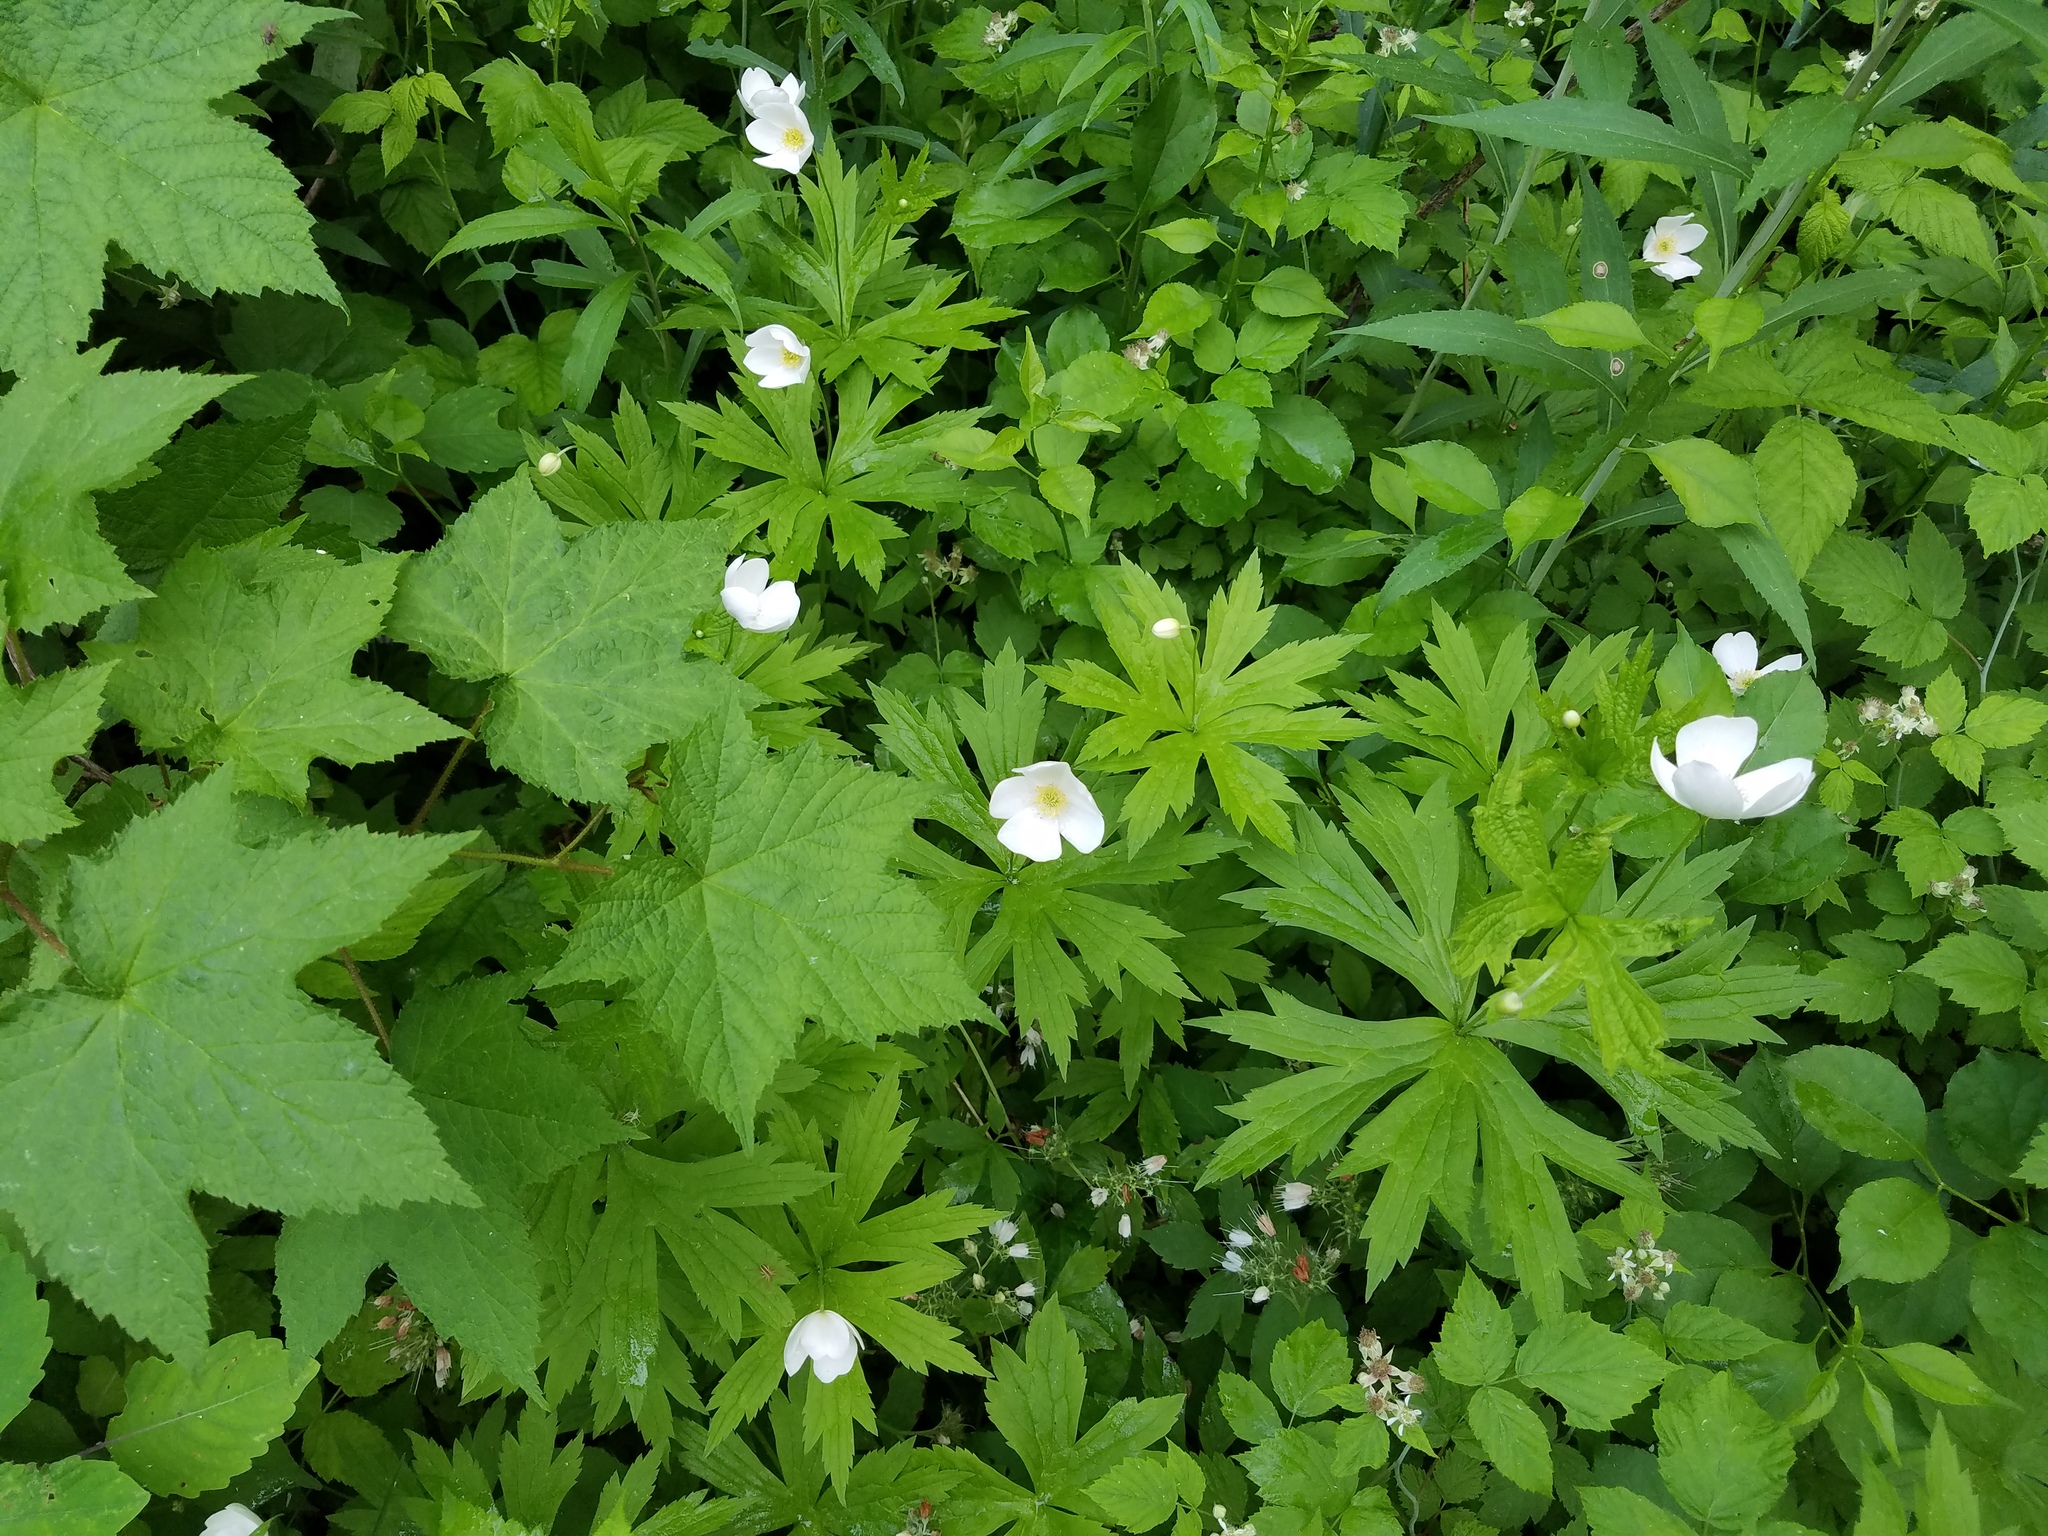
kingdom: Plantae
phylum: Tracheophyta
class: Magnoliopsida
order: Ranunculales
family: Ranunculaceae
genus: Anemonastrum
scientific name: Anemonastrum canadense
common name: Canada anemone
